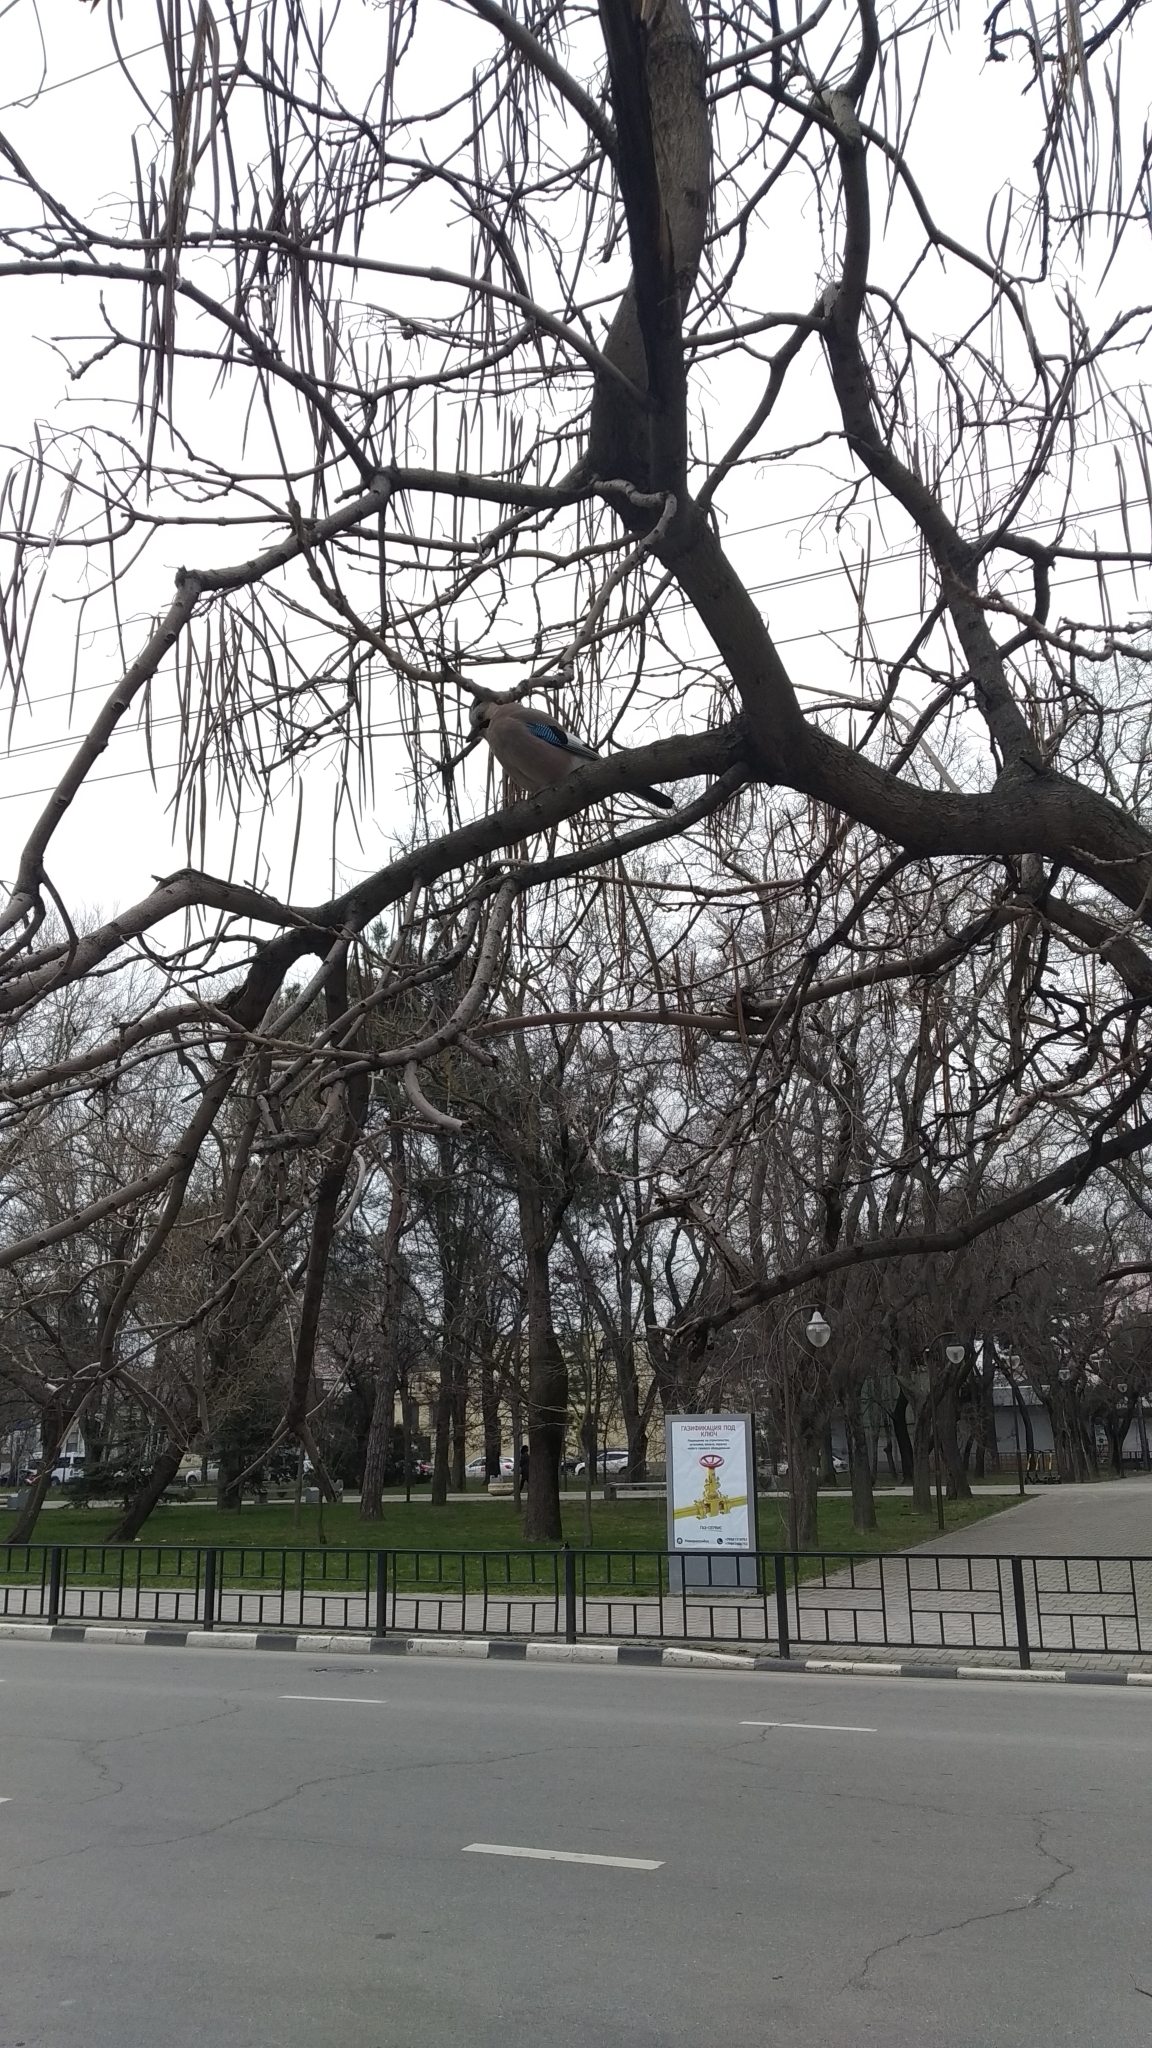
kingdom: Animalia
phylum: Chordata
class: Aves
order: Passeriformes
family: Corvidae
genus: Garrulus
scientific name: Garrulus glandarius
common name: Eurasian jay
